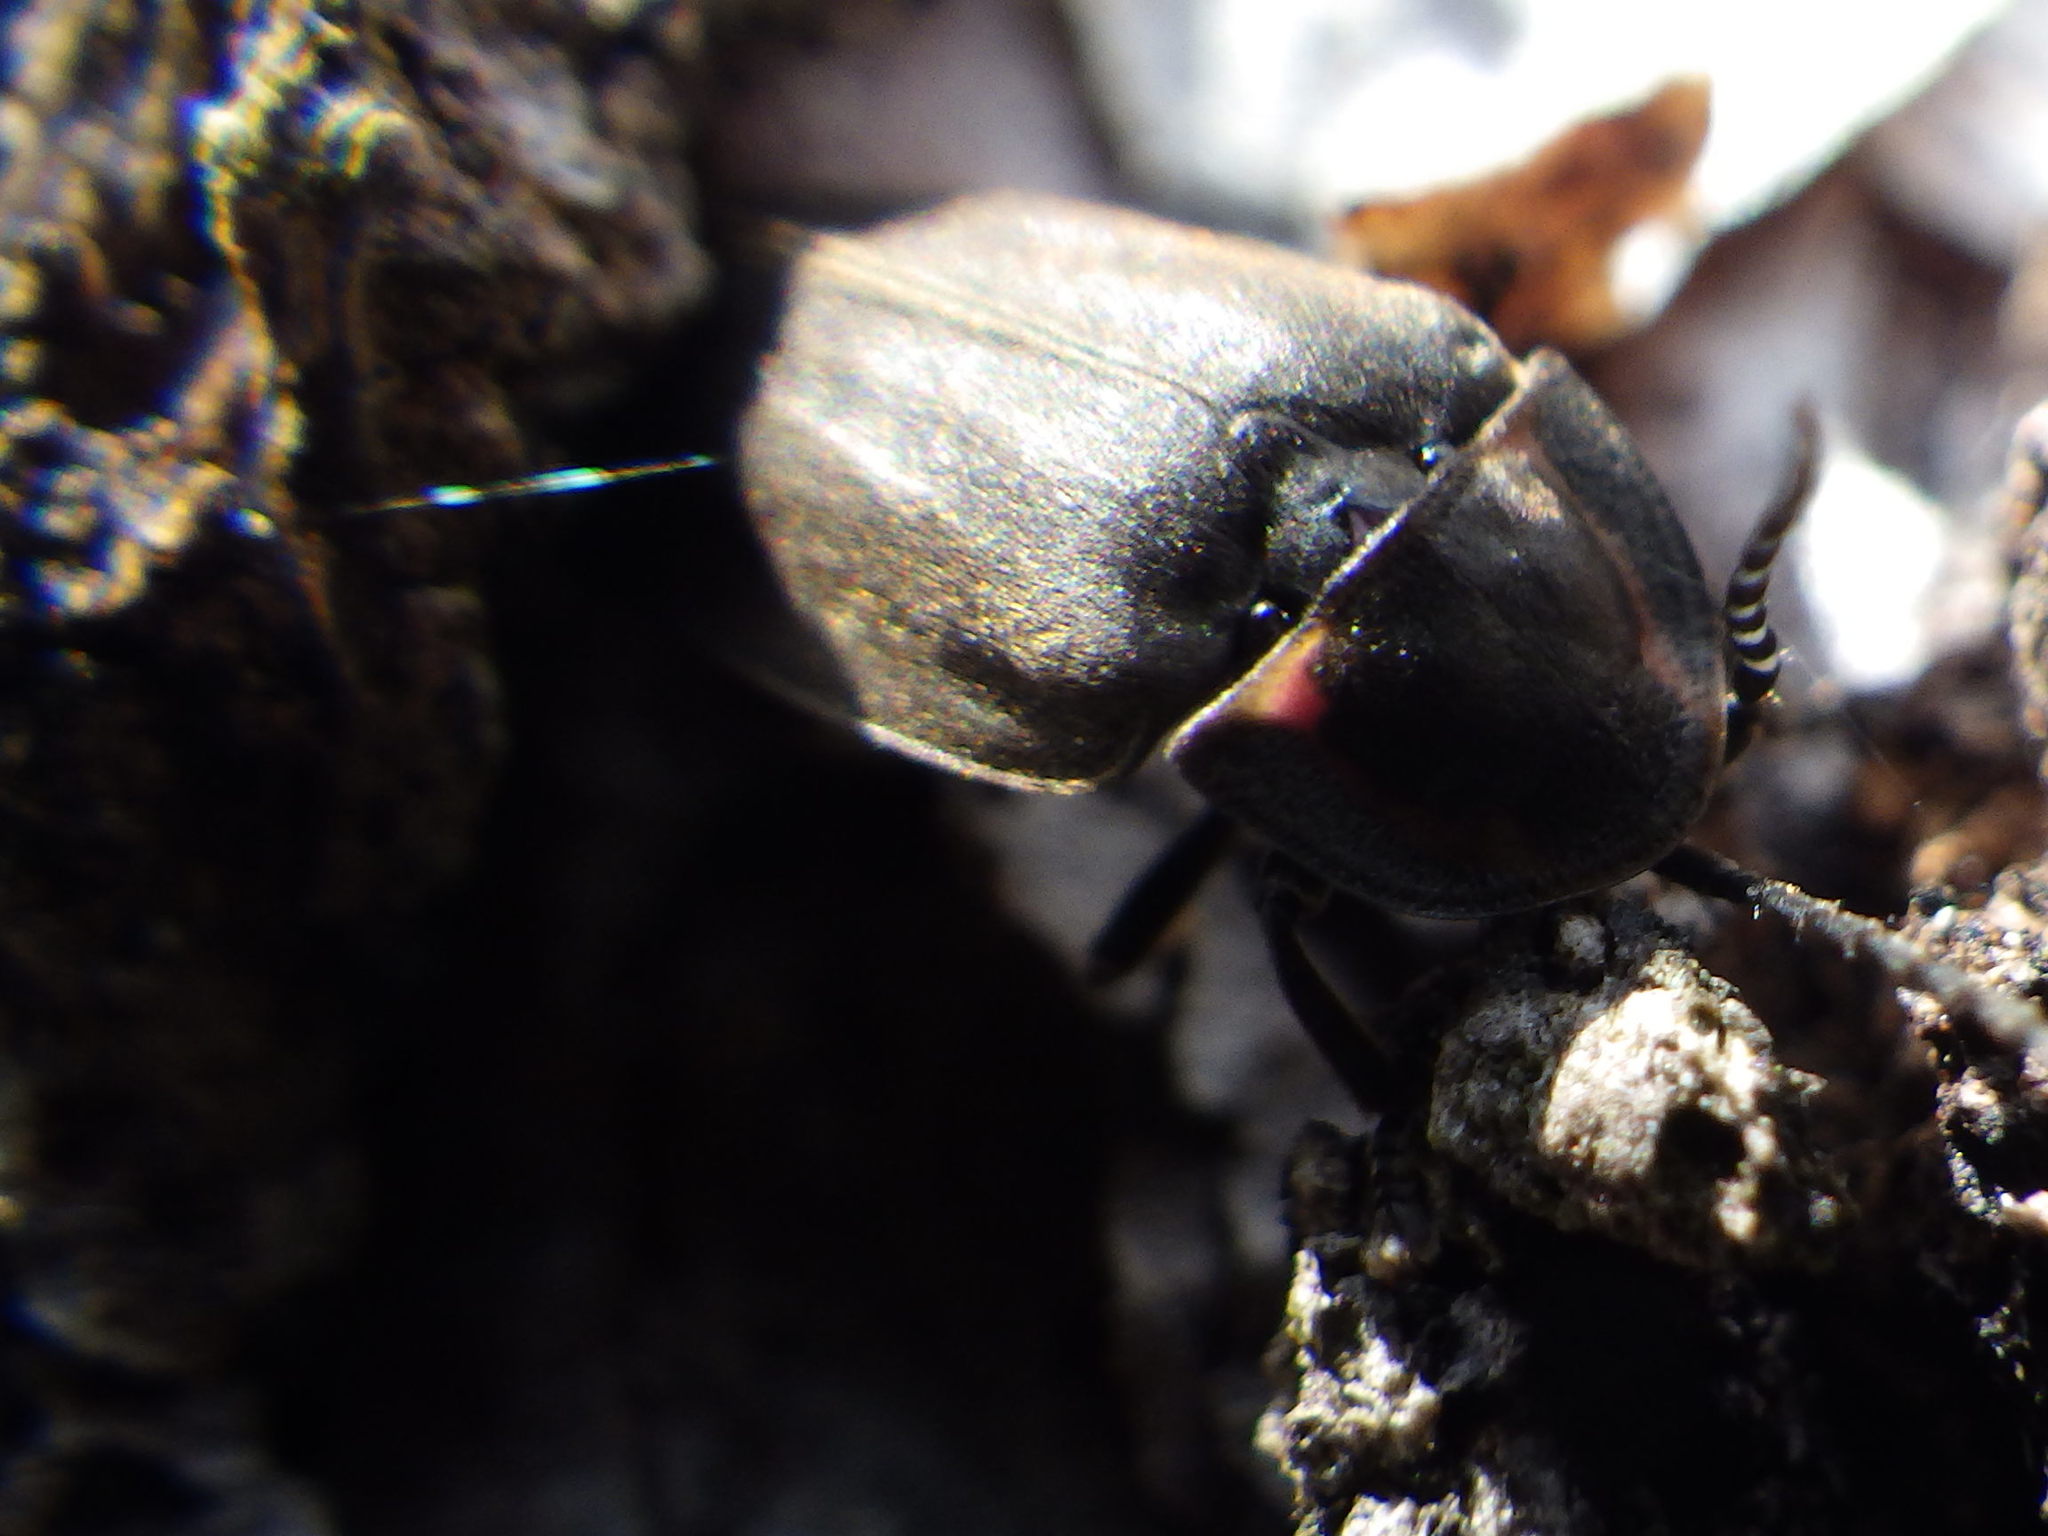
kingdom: Animalia
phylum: Arthropoda
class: Insecta
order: Coleoptera
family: Lampyridae
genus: Photinus
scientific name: Photinus corrusca
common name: Winter firefly
